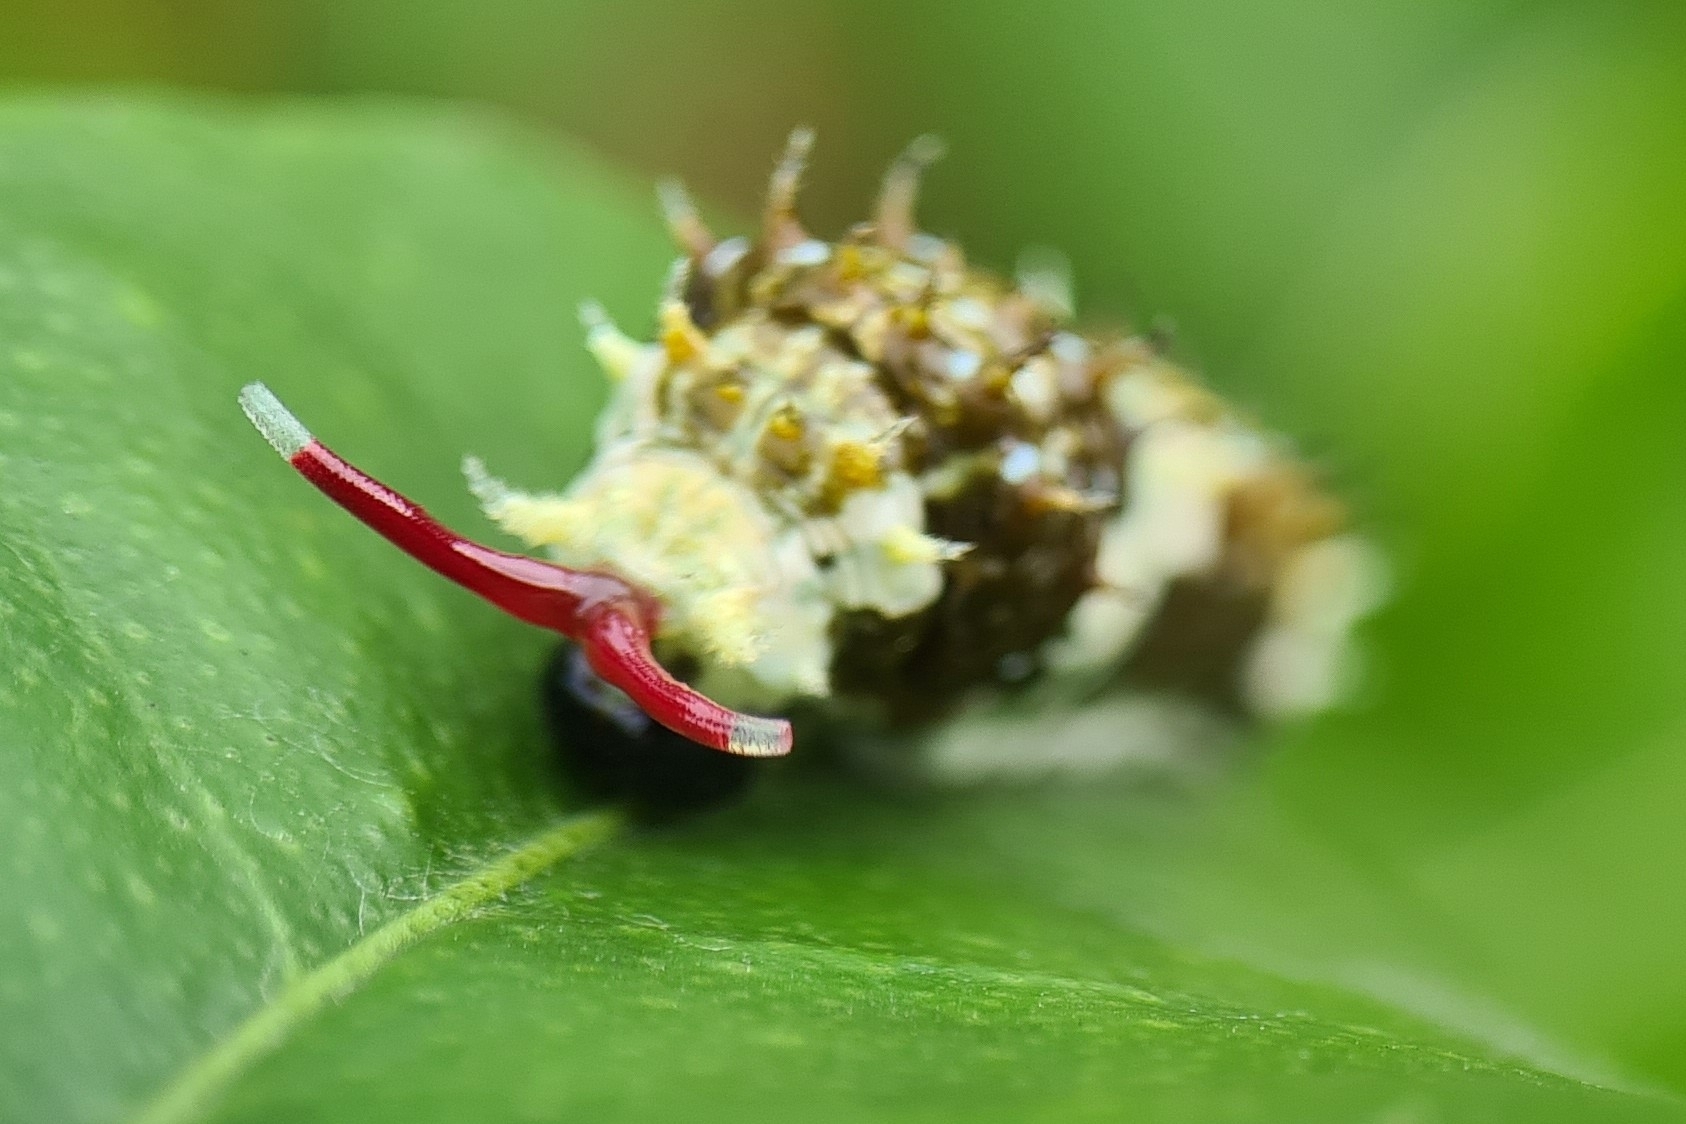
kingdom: Animalia
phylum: Arthropoda
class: Insecta
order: Lepidoptera
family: Papilionidae
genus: Papilio
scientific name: Papilio aegeus
